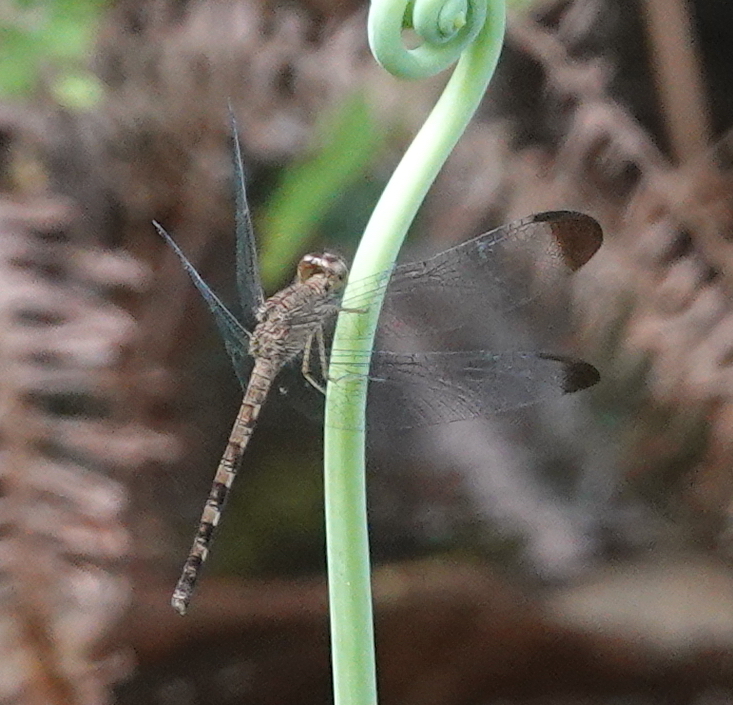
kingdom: Animalia
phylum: Arthropoda
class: Insecta
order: Odonata
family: Libellulidae
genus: Uracis
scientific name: Uracis imbuta
